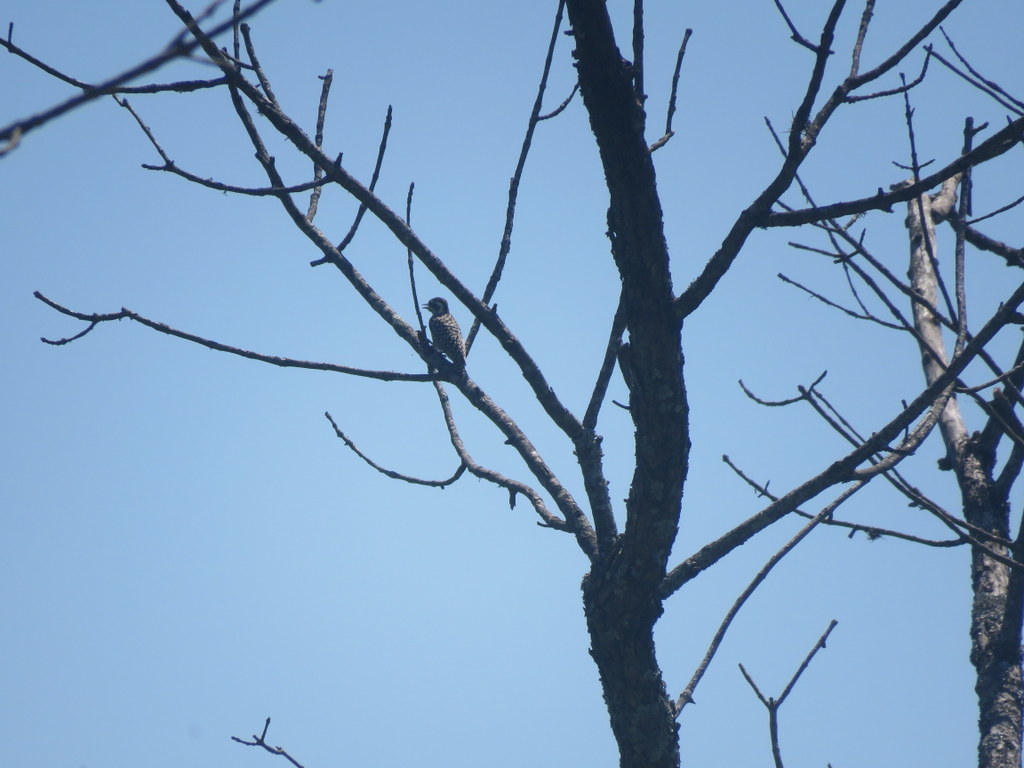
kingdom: Animalia
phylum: Chordata
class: Aves
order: Piciformes
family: Picidae
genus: Veniliornis
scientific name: Veniliornis mixtus
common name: Checkered woodpecker
